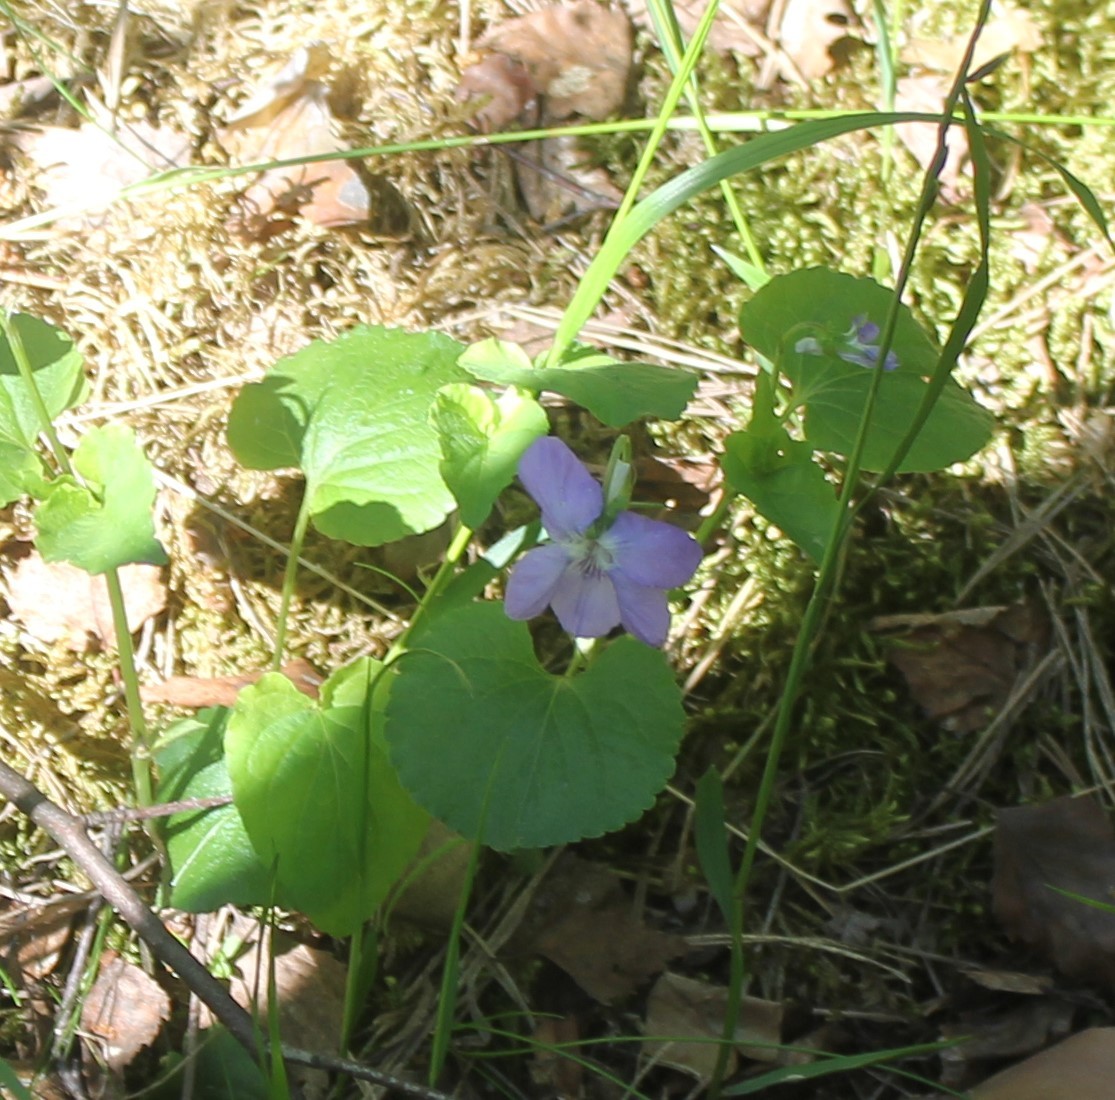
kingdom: Plantae
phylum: Tracheophyta
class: Magnoliopsida
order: Malpighiales
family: Violaceae
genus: Viola
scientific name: Viola riviniana
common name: Common dog-violet
